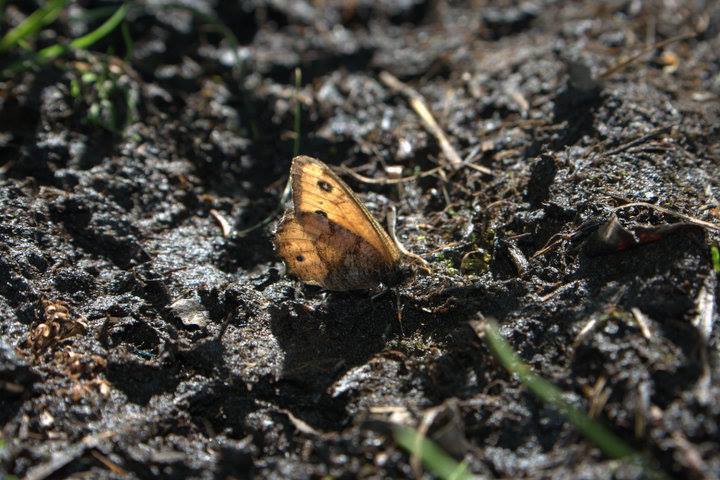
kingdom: Animalia
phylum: Arthropoda
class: Insecta
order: Lepidoptera
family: Nymphalidae
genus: Oeneis
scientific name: Oeneis macounii
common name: Macoun's arctic
